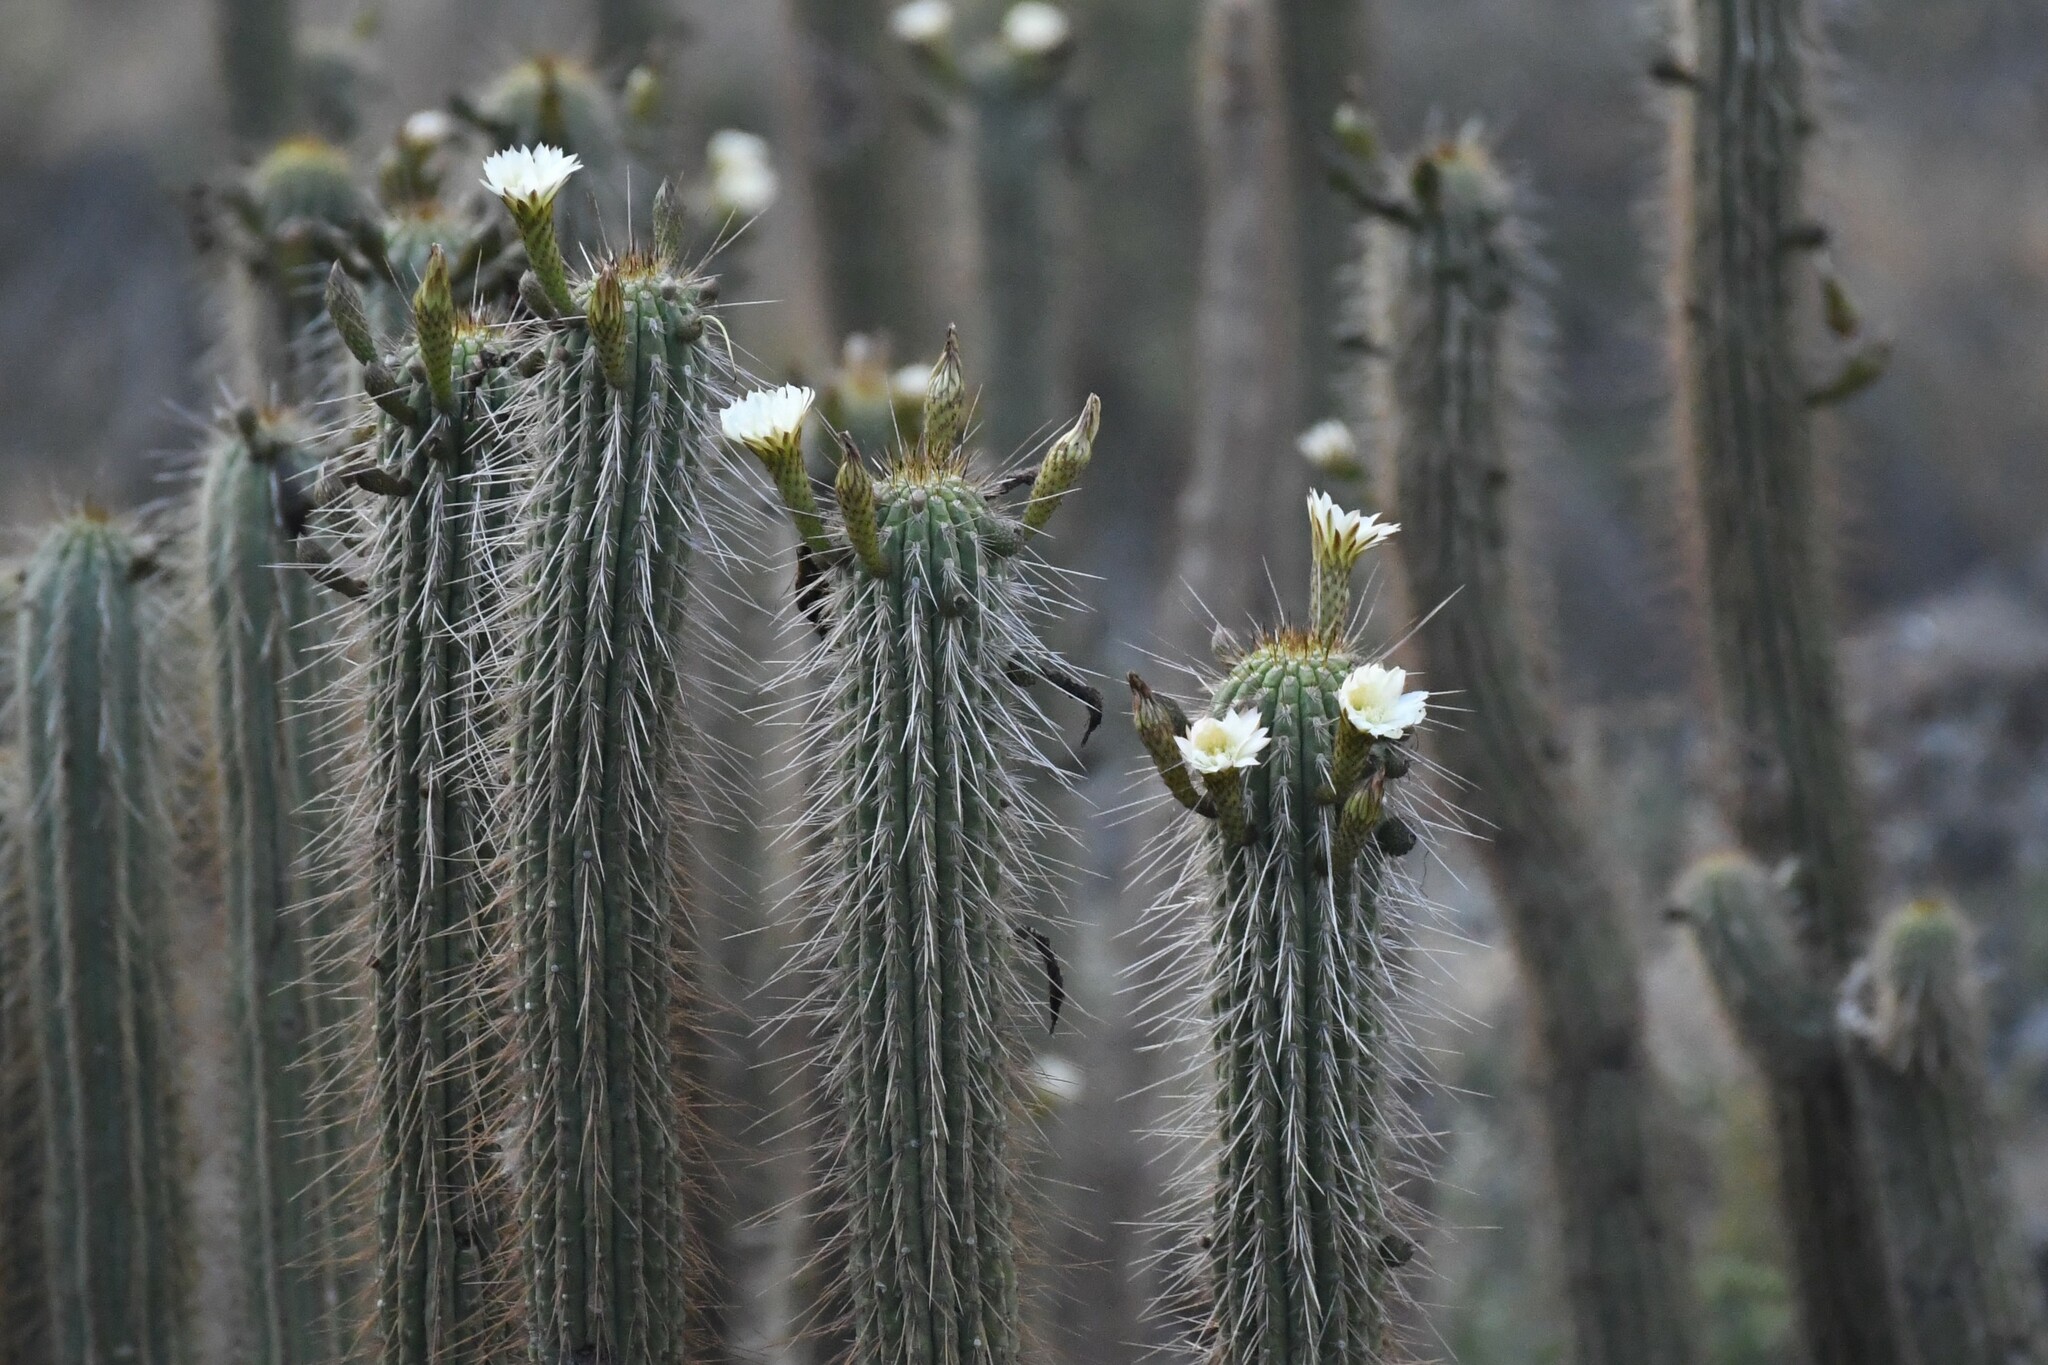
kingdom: Plantae
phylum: Tracheophyta
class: Magnoliopsida
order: Caryophyllales
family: Cactaceae
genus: Leucostele
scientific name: Leucostele chiloensis
